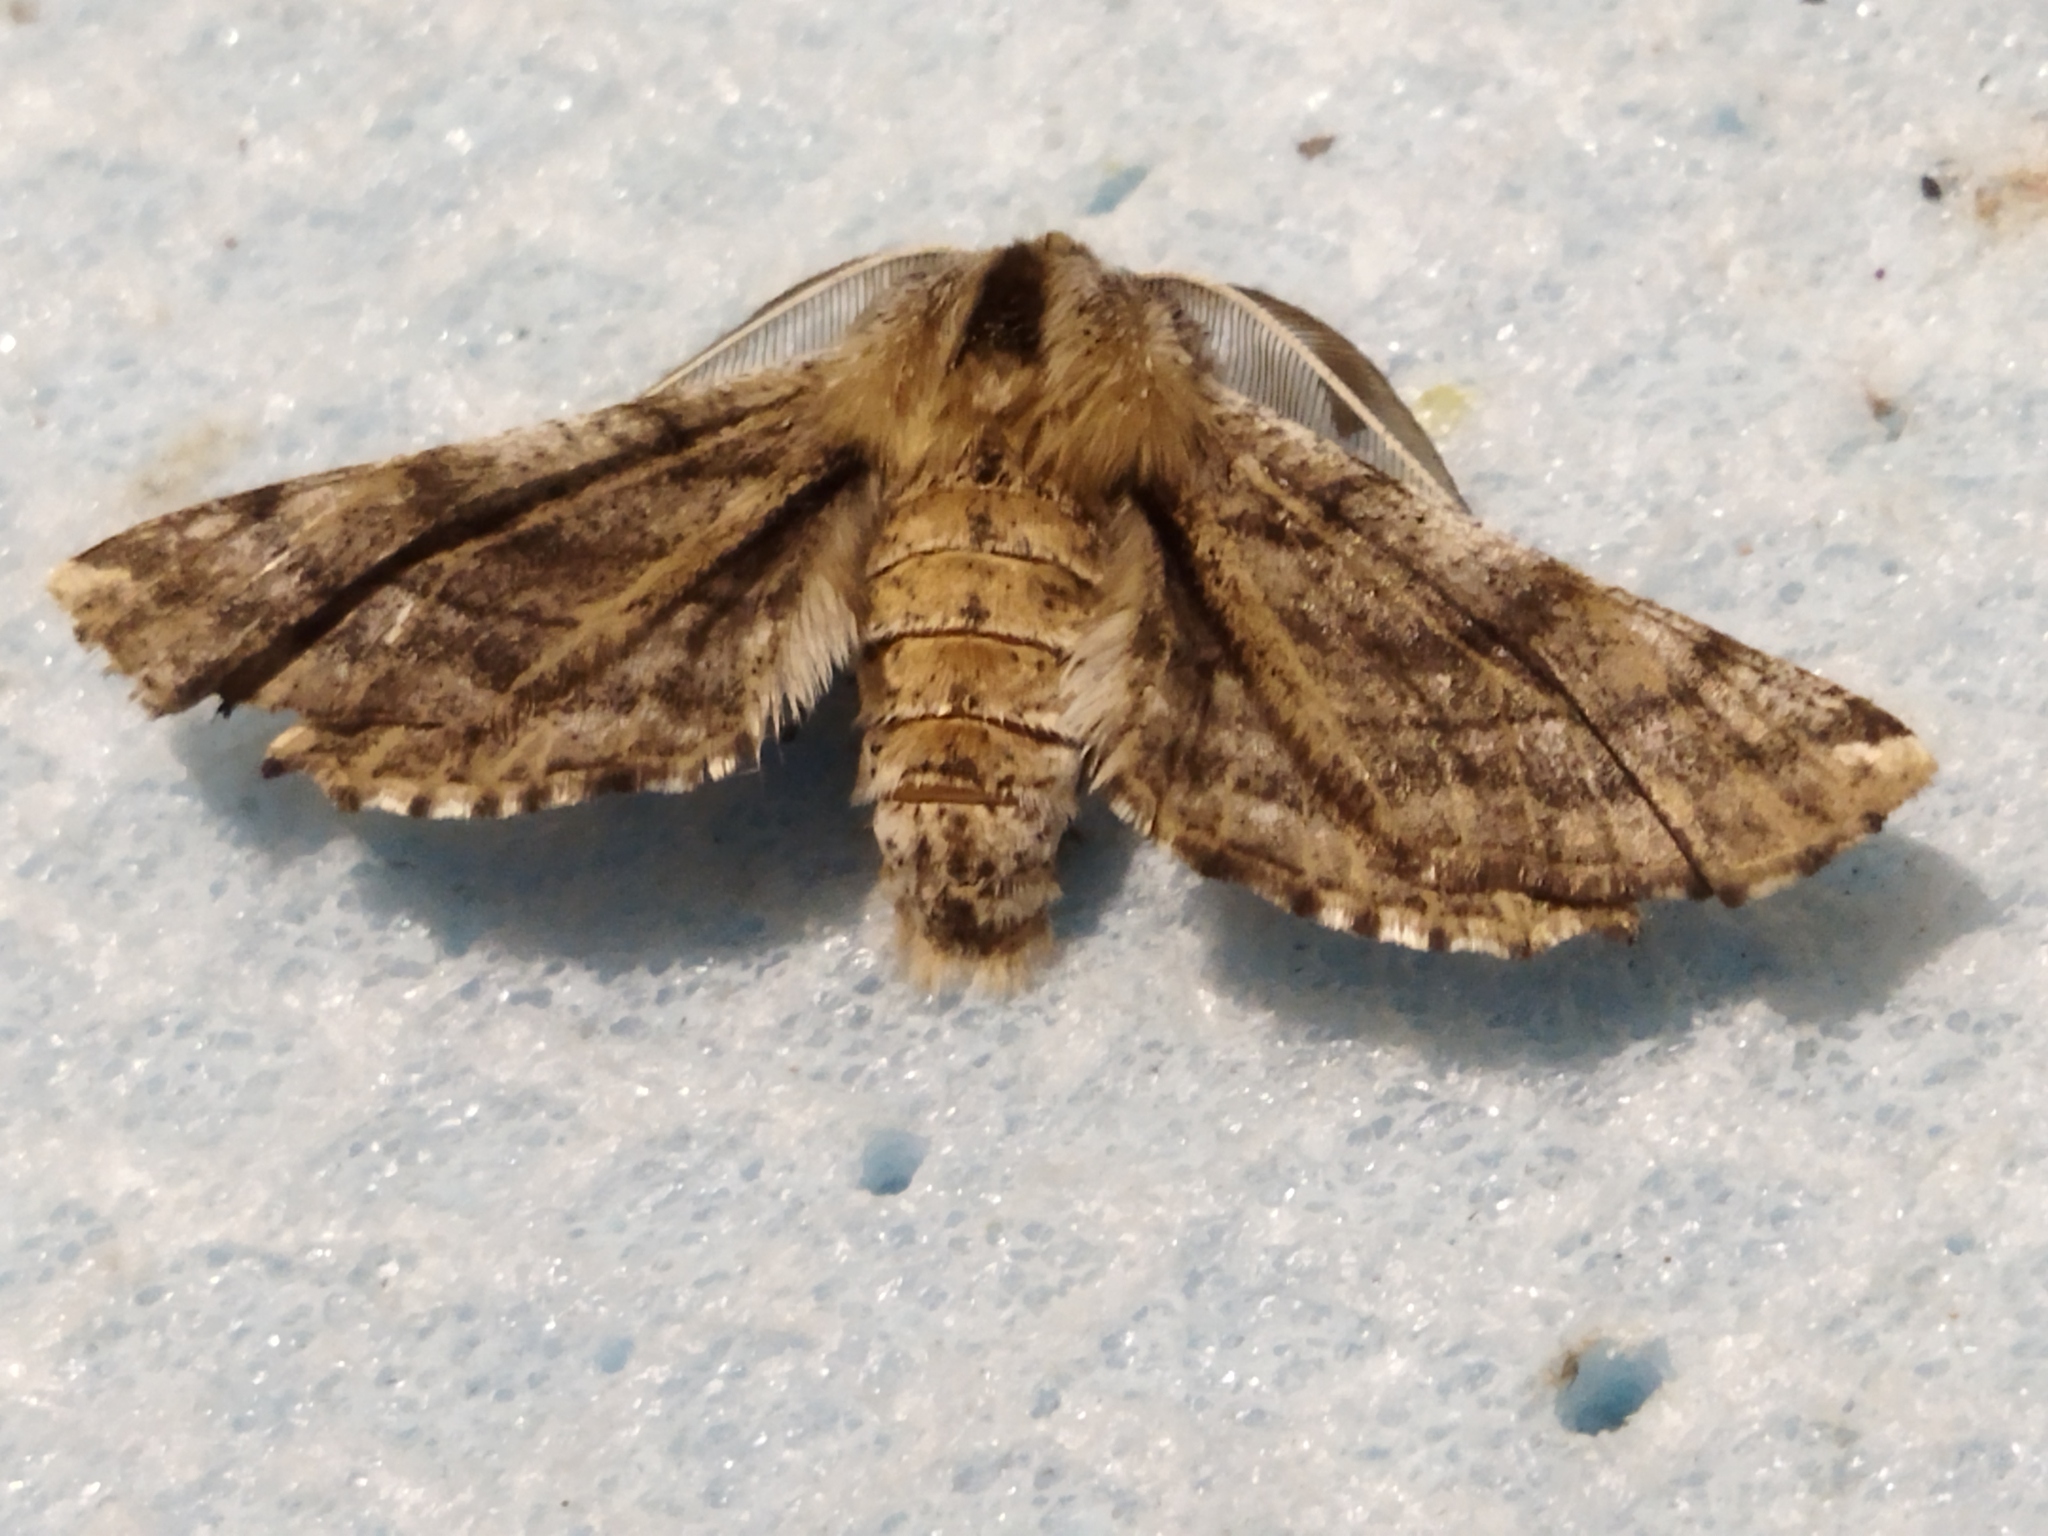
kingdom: Animalia
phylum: Arthropoda
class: Insecta
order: Lepidoptera
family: Geometridae
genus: Apochima
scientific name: Apochima flabellaria
